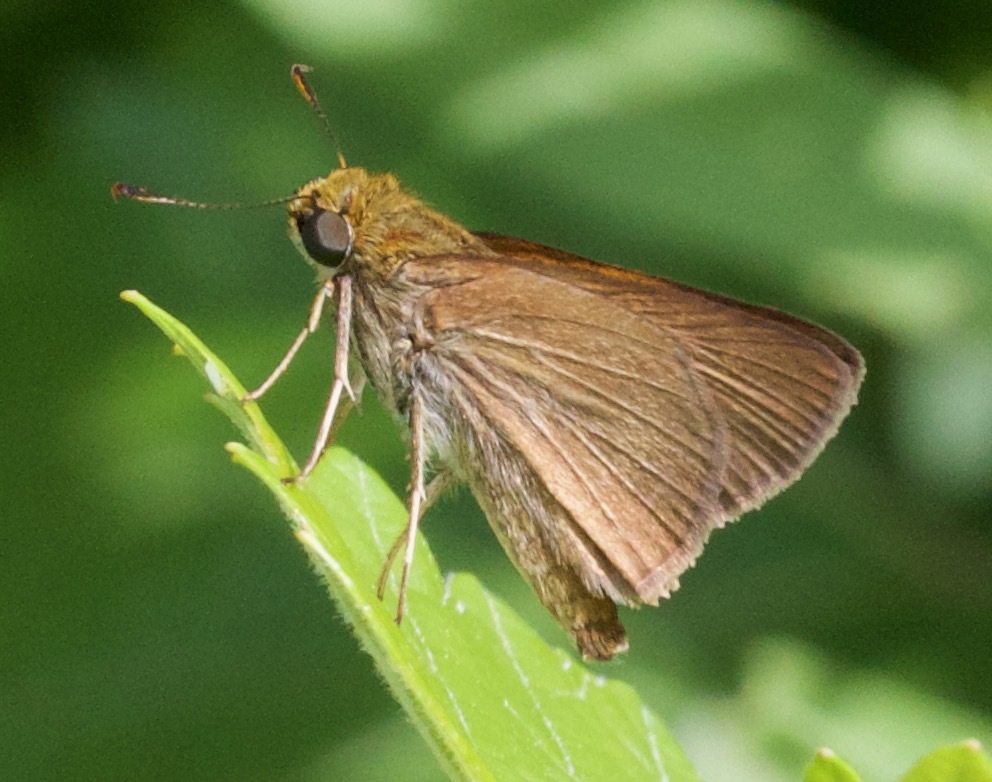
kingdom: Animalia
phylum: Arthropoda
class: Insecta
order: Lepidoptera
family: Hesperiidae
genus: Polites
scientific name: Polites origenes
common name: Crossline skipper
